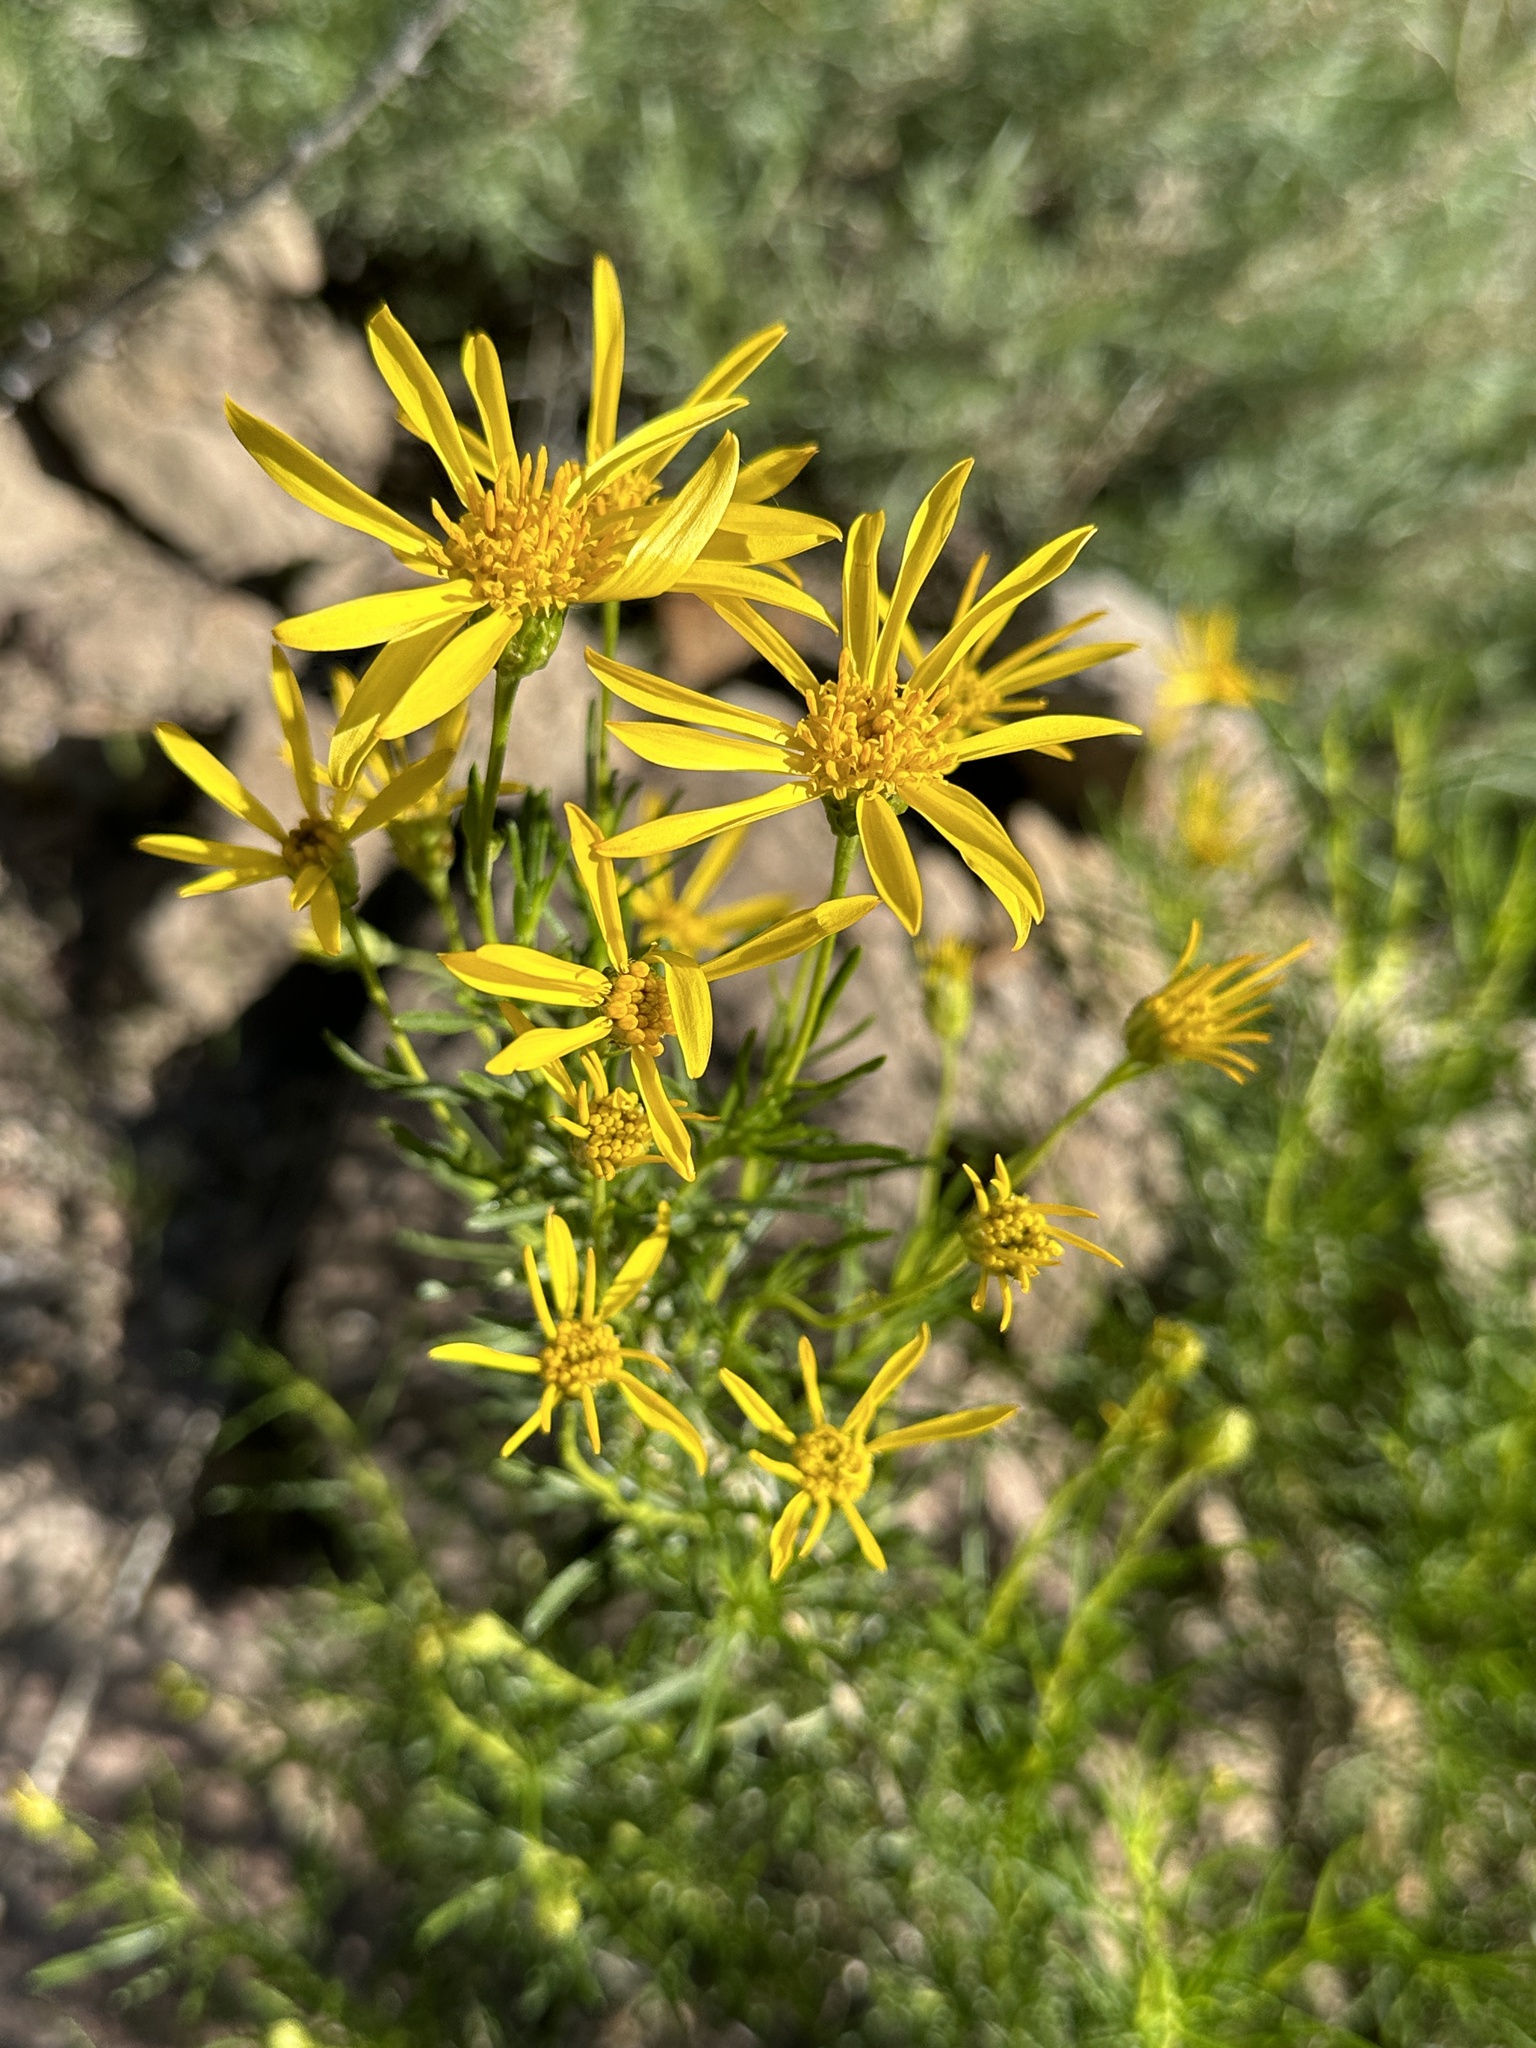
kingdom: Plantae
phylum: Tracheophyta
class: Magnoliopsida
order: Asterales
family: Asteraceae
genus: Ericameria
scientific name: Ericameria linearifolia
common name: Interior goldenbush
